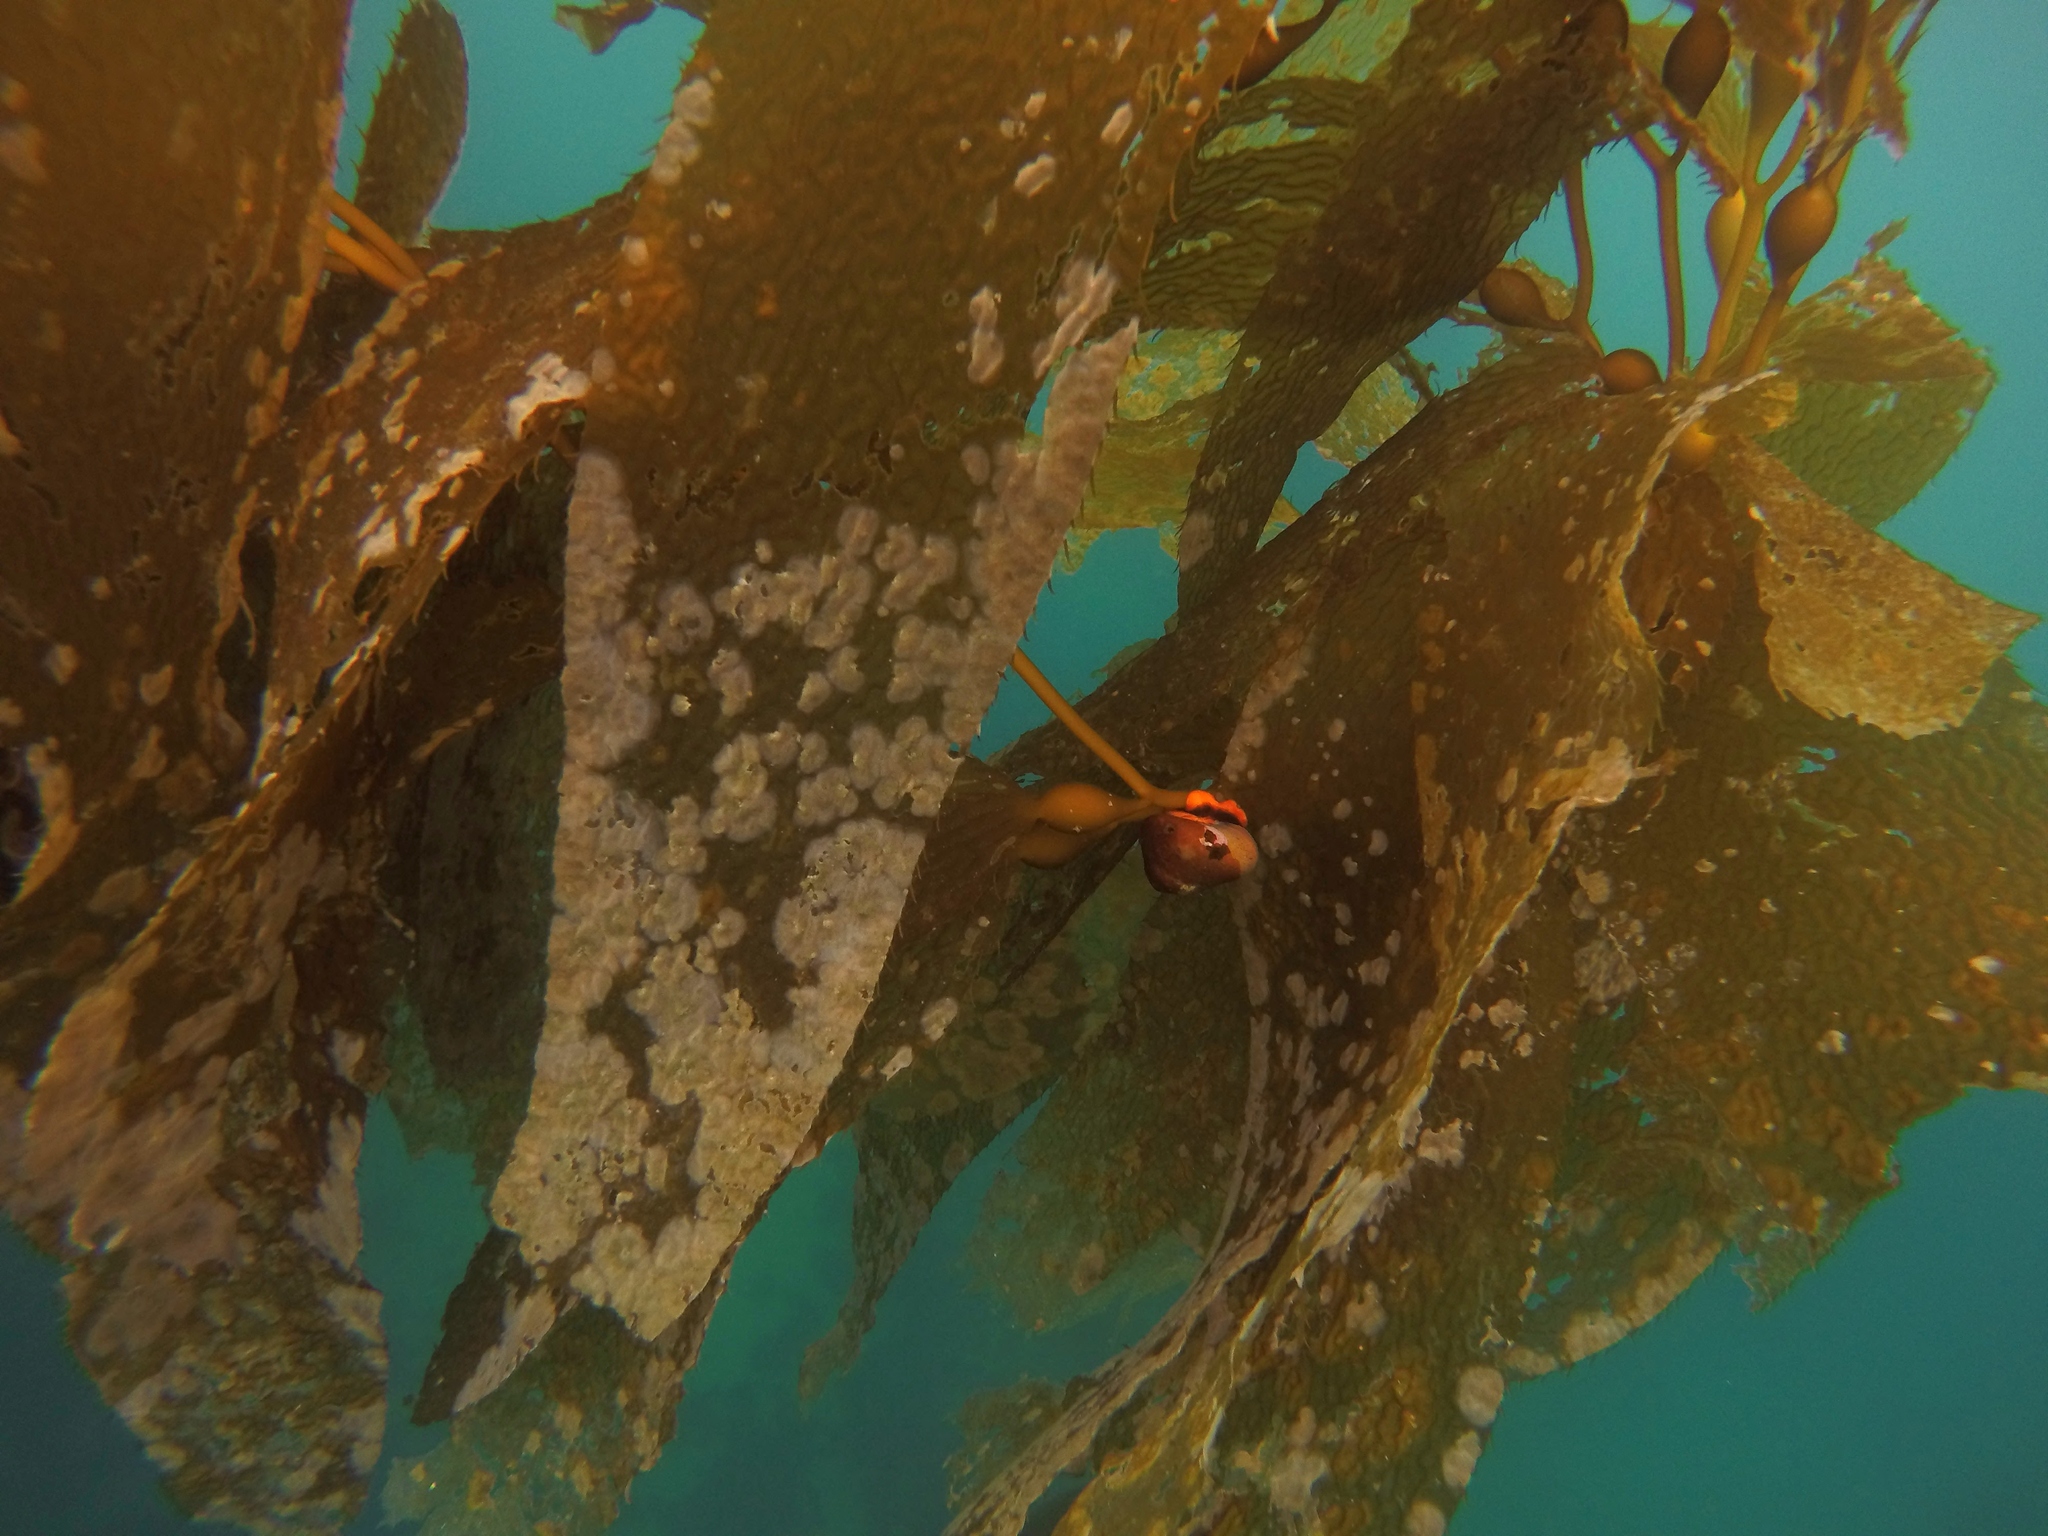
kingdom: Animalia
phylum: Mollusca
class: Gastropoda
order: Trochida
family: Tegulidae
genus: Norrisia
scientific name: Norrisia norrisii
